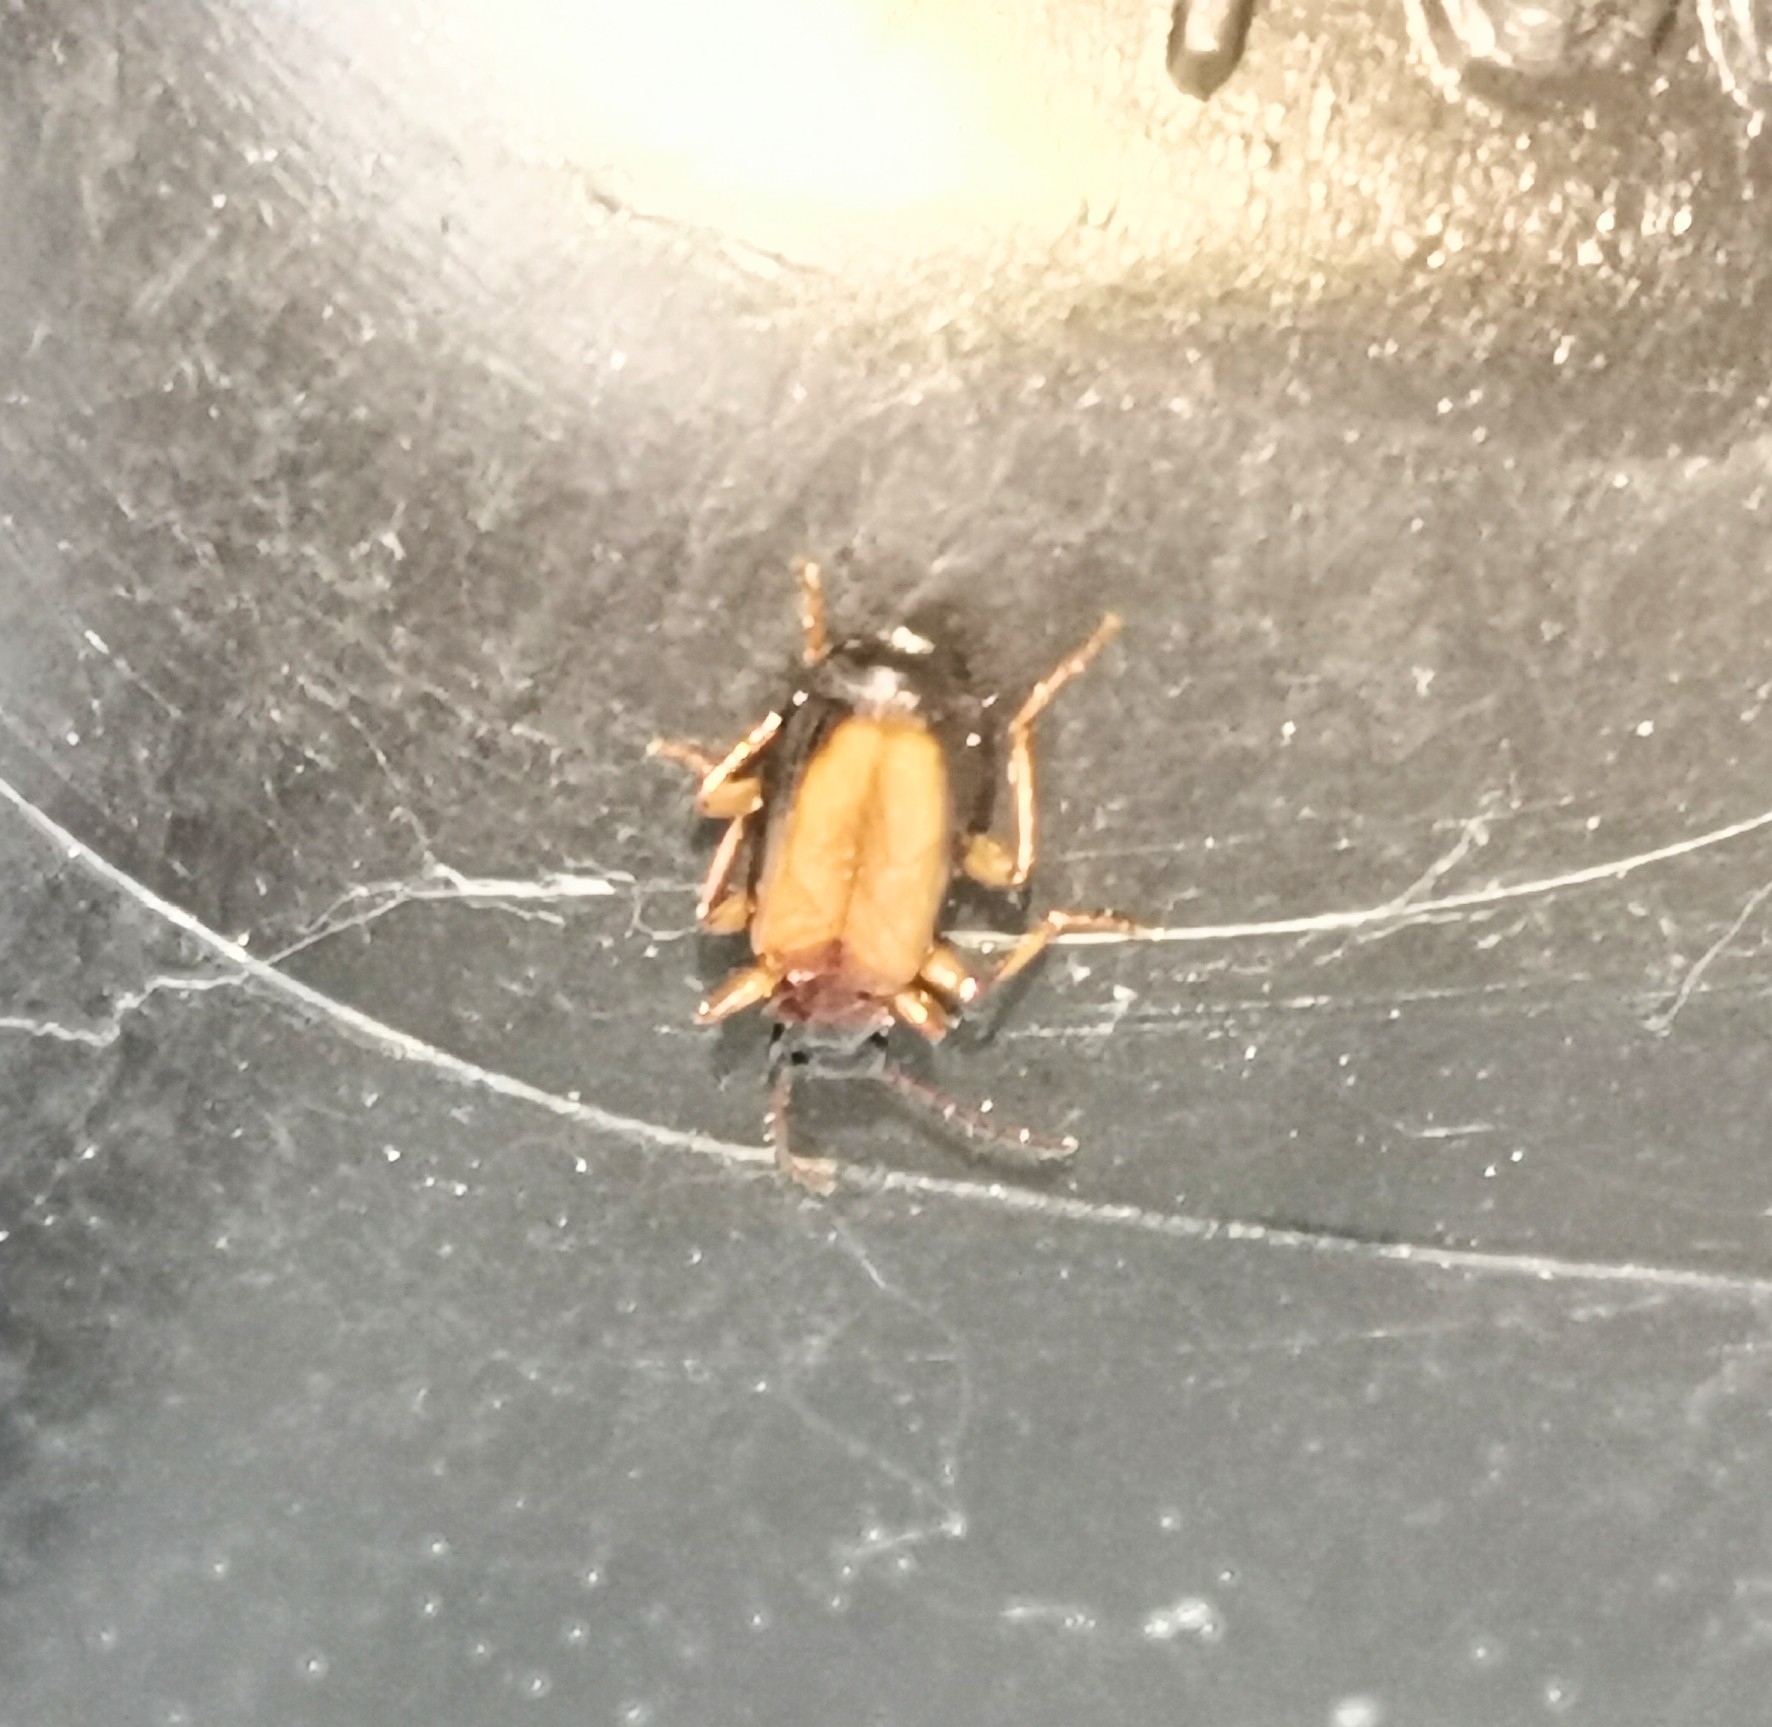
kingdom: Animalia
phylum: Arthropoda
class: Insecta
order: Coleoptera
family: Carabidae
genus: Dromius
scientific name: Dromius schneideri
